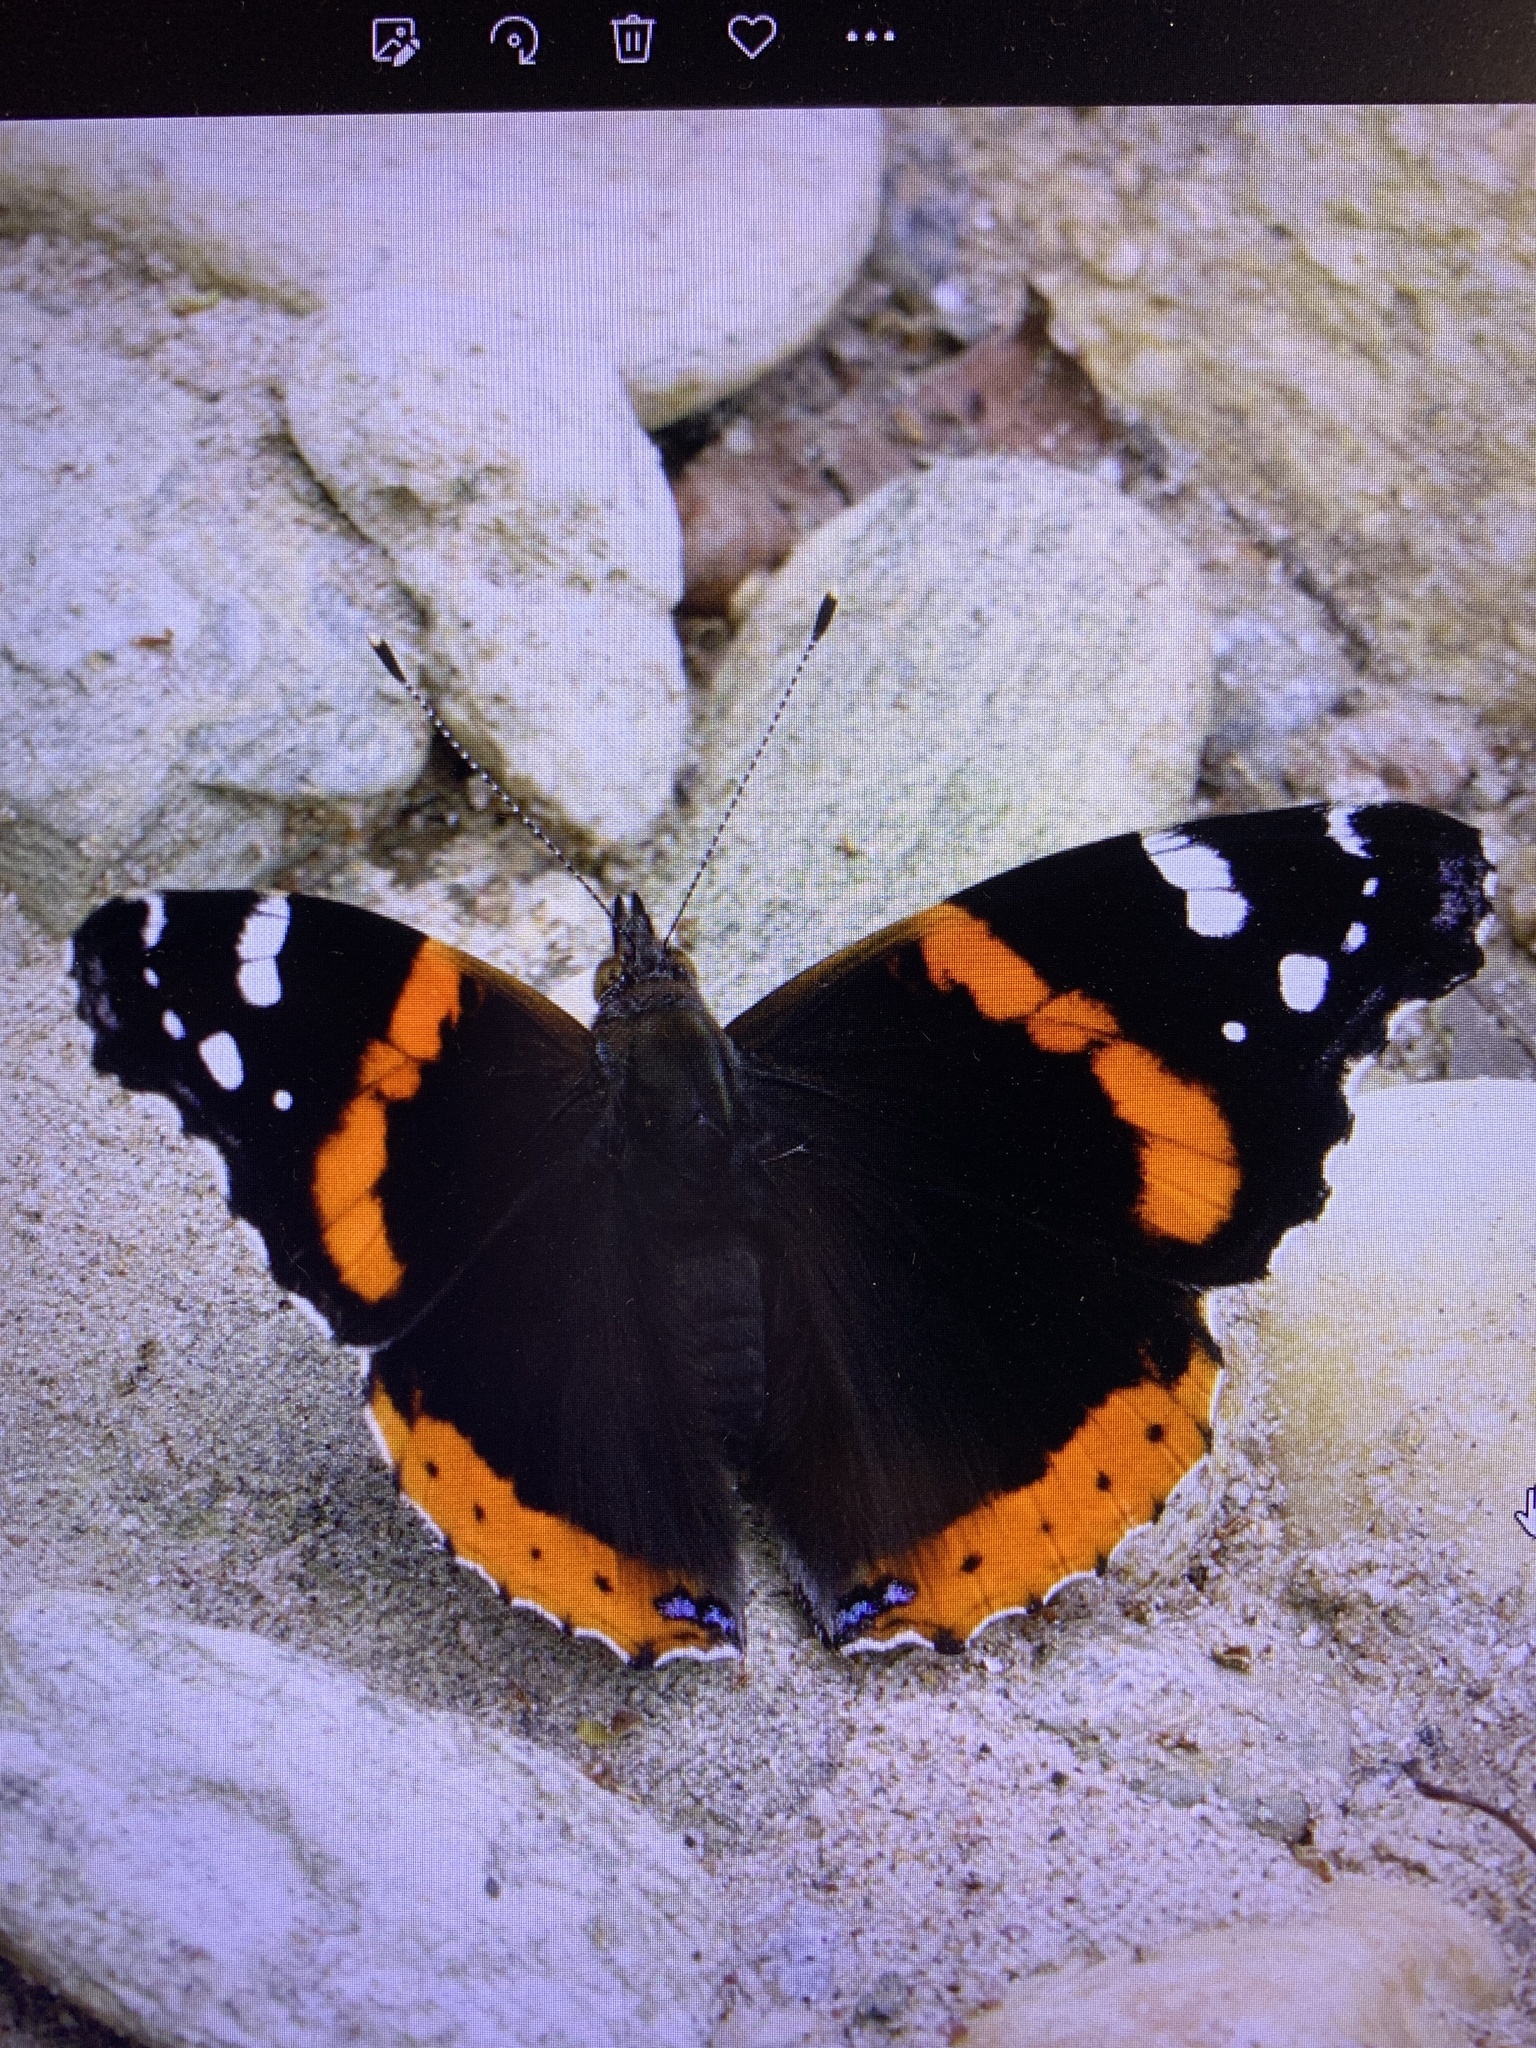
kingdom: Animalia
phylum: Arthropoda
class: Insecta
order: Lepidoptera
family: Nymphalidae
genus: Vanessa
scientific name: Vanessa atalanta
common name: Red admiral
